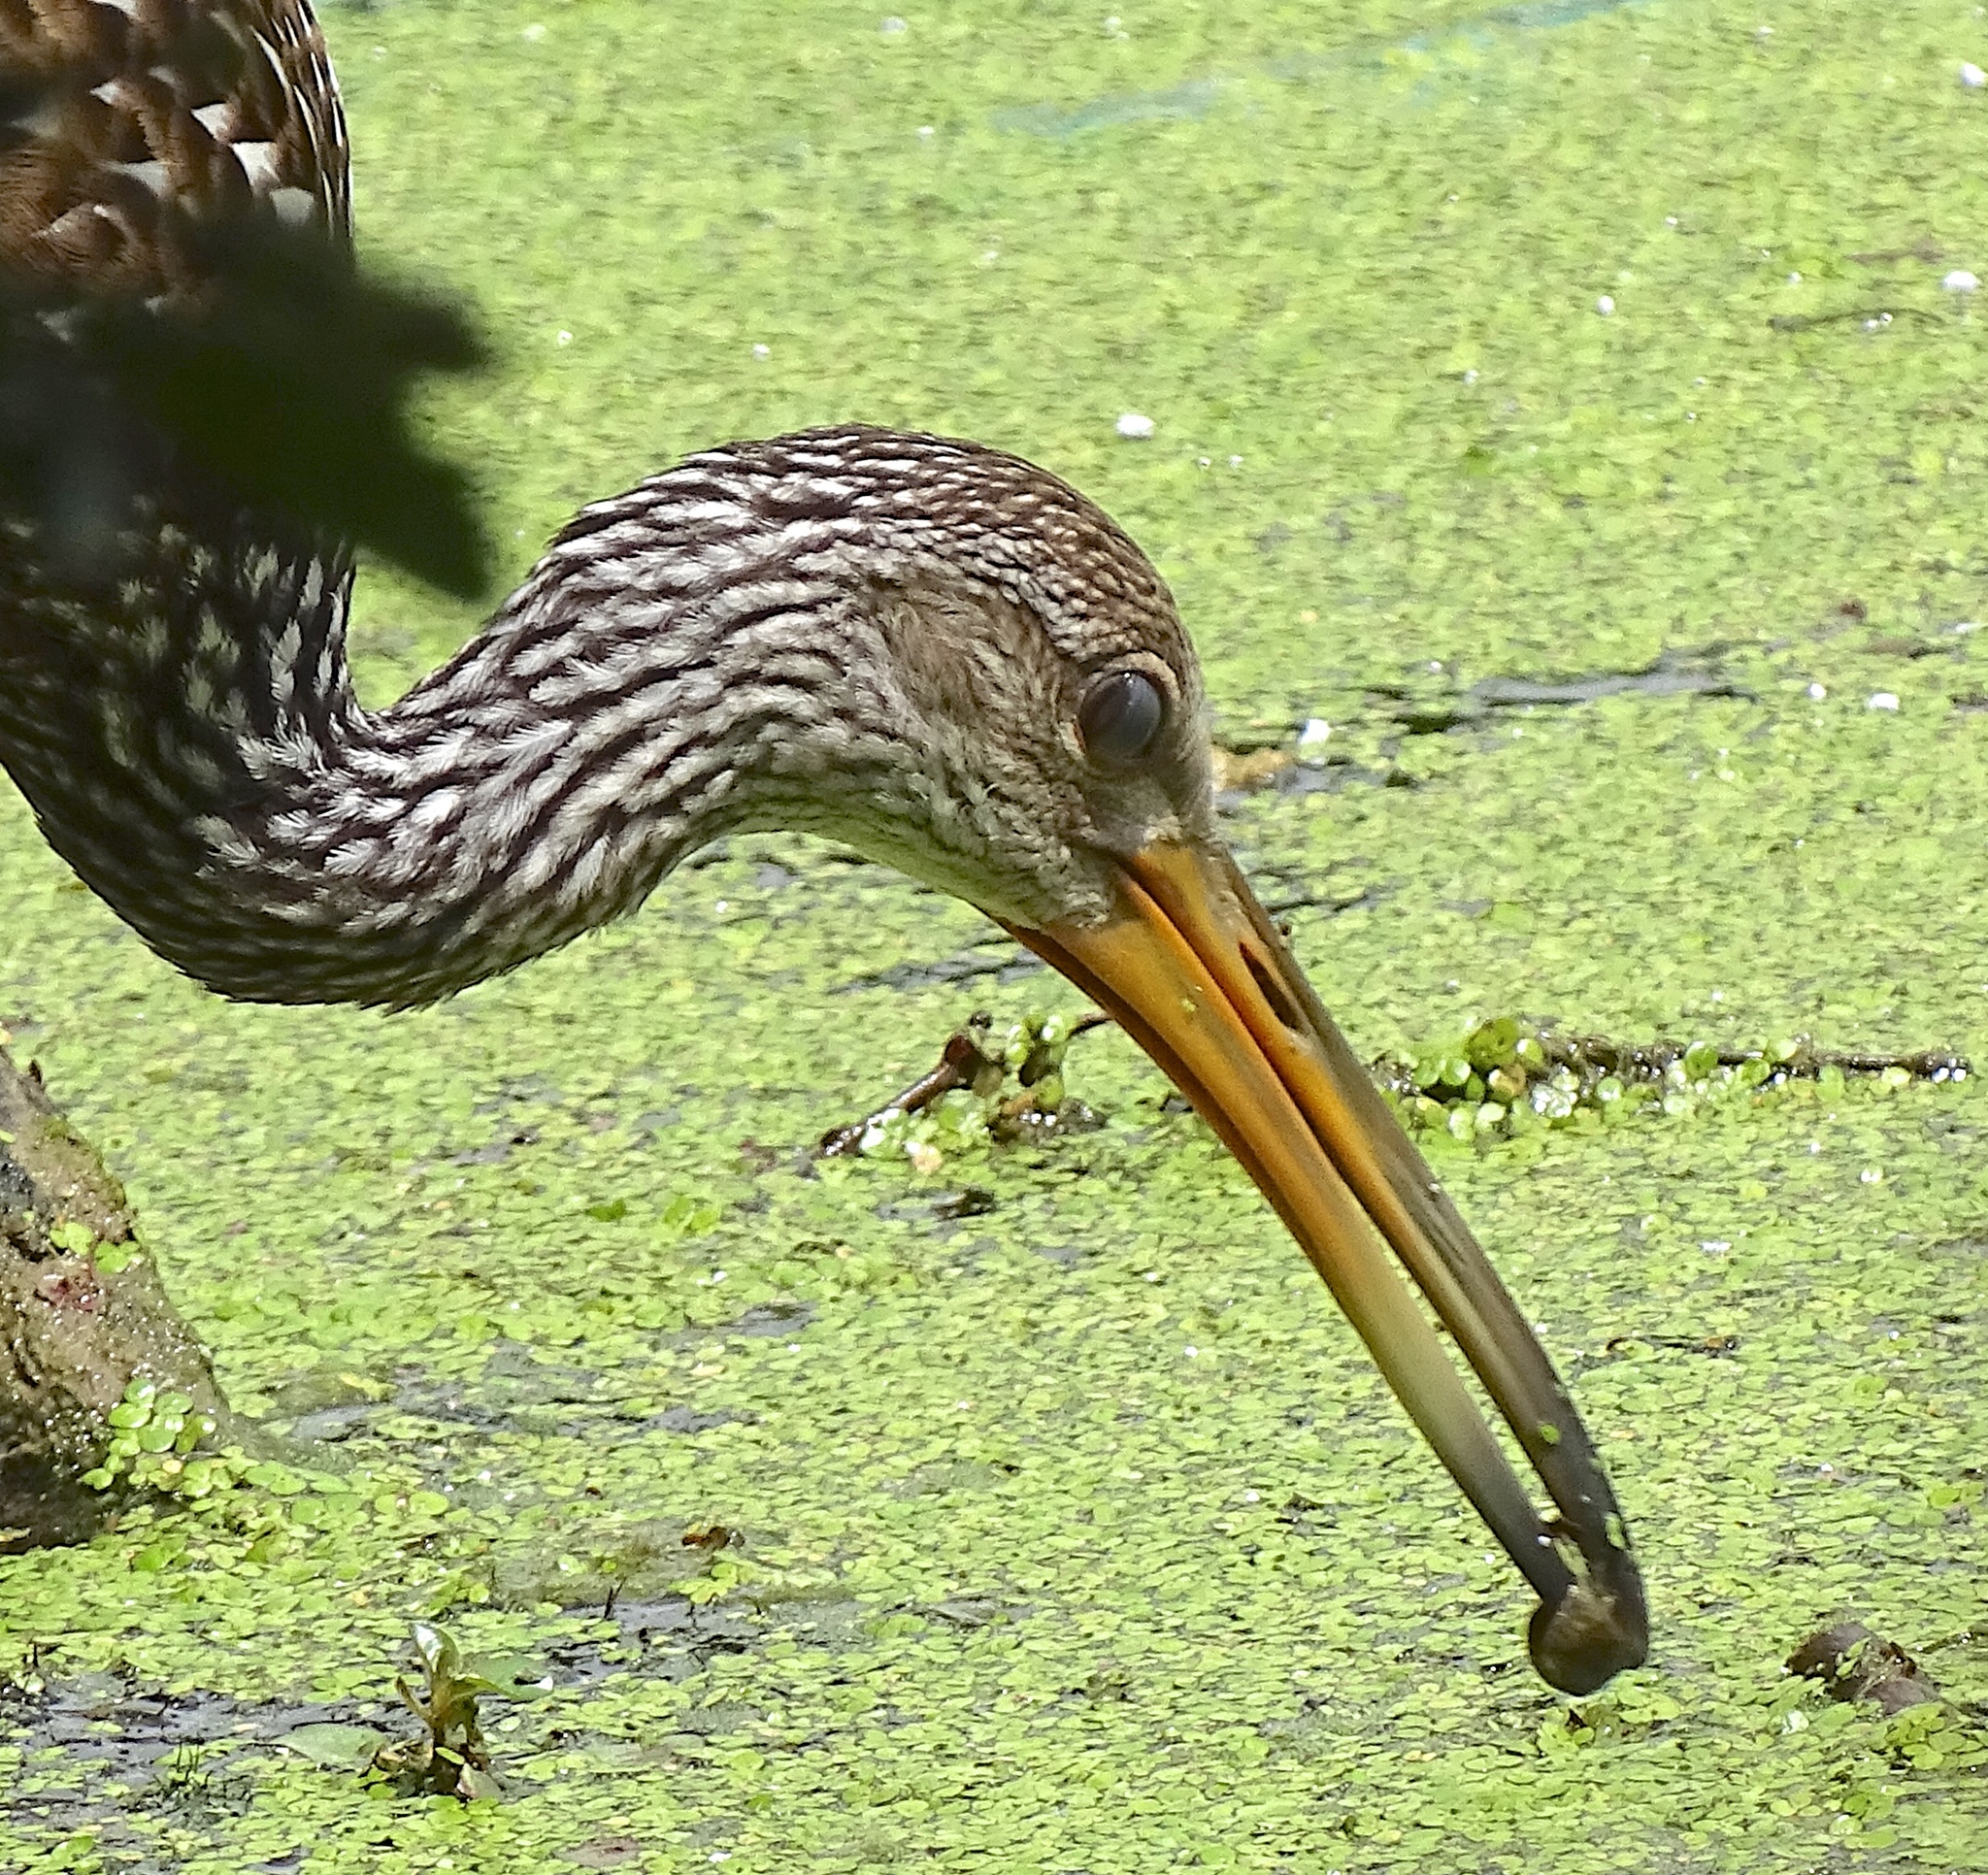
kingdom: Animalia
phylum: Chordata
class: Aves
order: Gruiformes
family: Aramidae
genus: Aramus
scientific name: Aramus guarauna
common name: Limpkin
